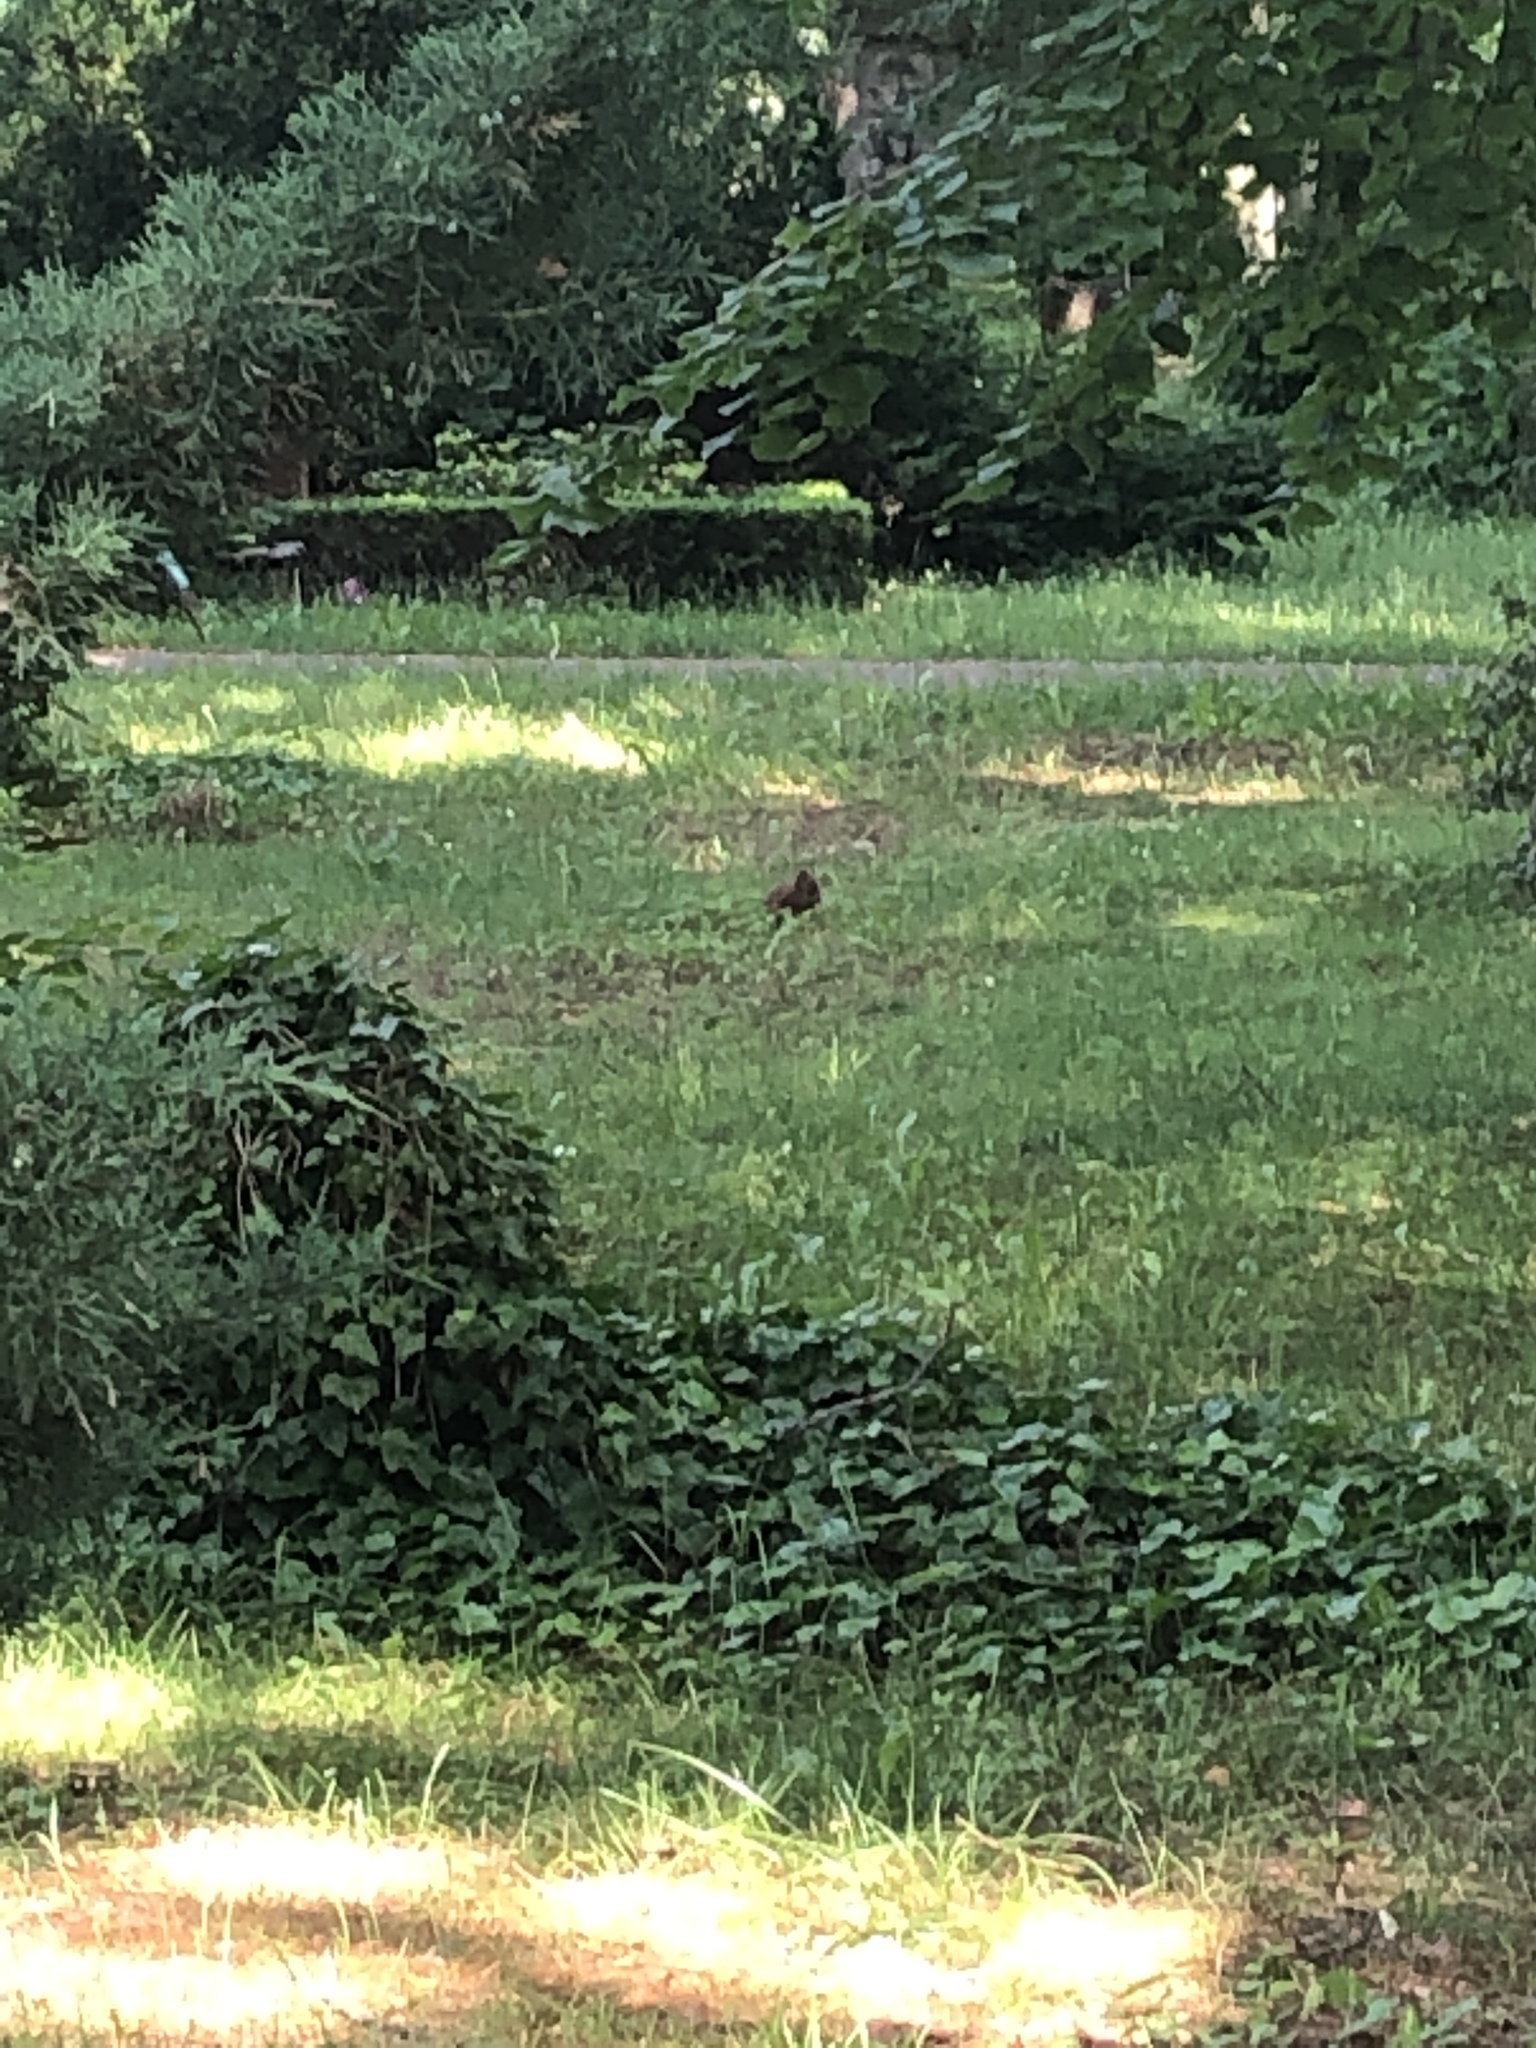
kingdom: Animalia
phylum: Chordata
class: Mammalia
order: Rodentia
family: Sciuridae
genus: Sciurus
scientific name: Sciurus vulgaris
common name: Eurasian red squirrel
